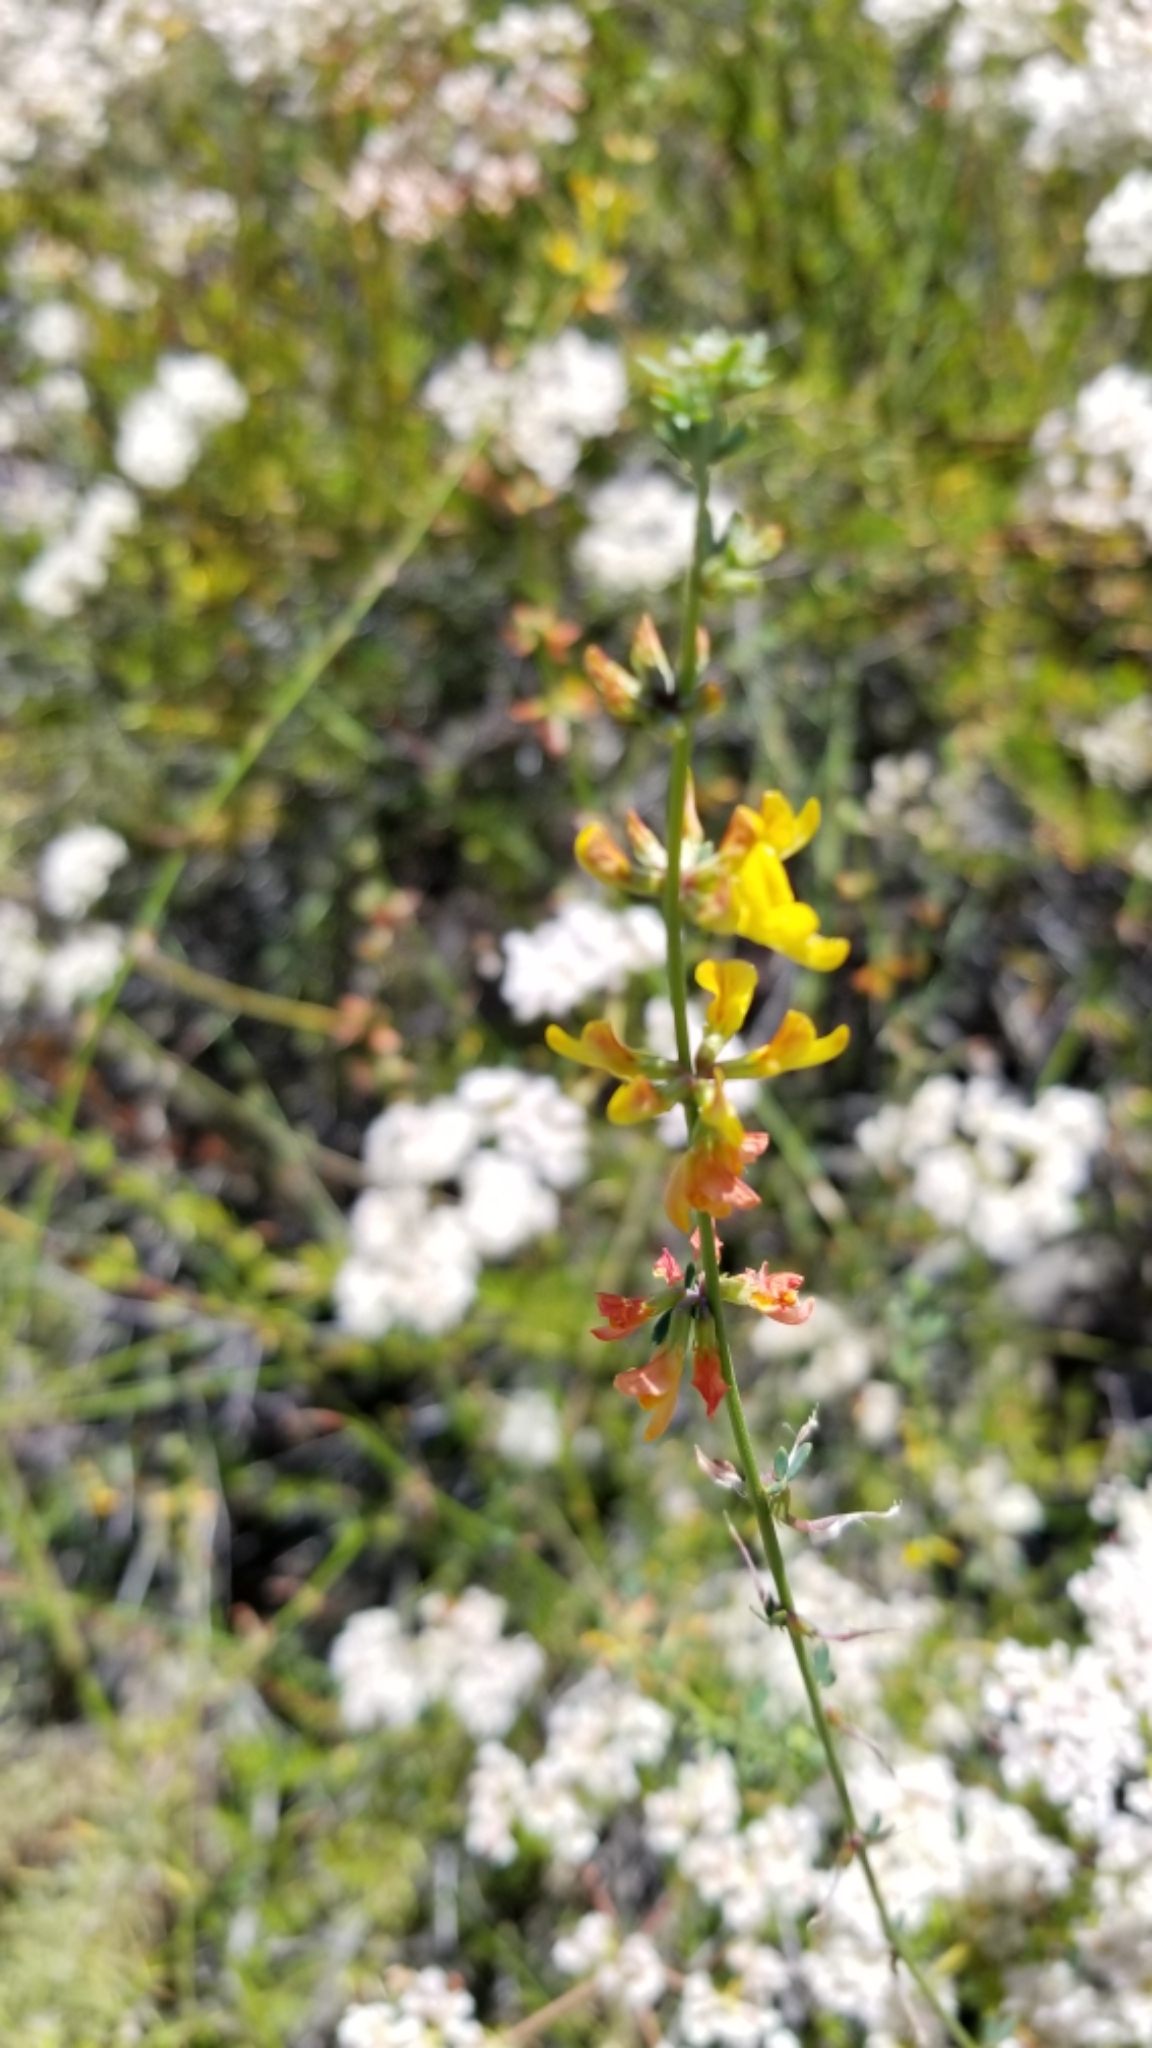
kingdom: Plantae
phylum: Tracheophyta
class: Magnoliopsida
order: Fabales
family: Fabaceae
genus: Acmispon
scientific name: Acmispon glaber
